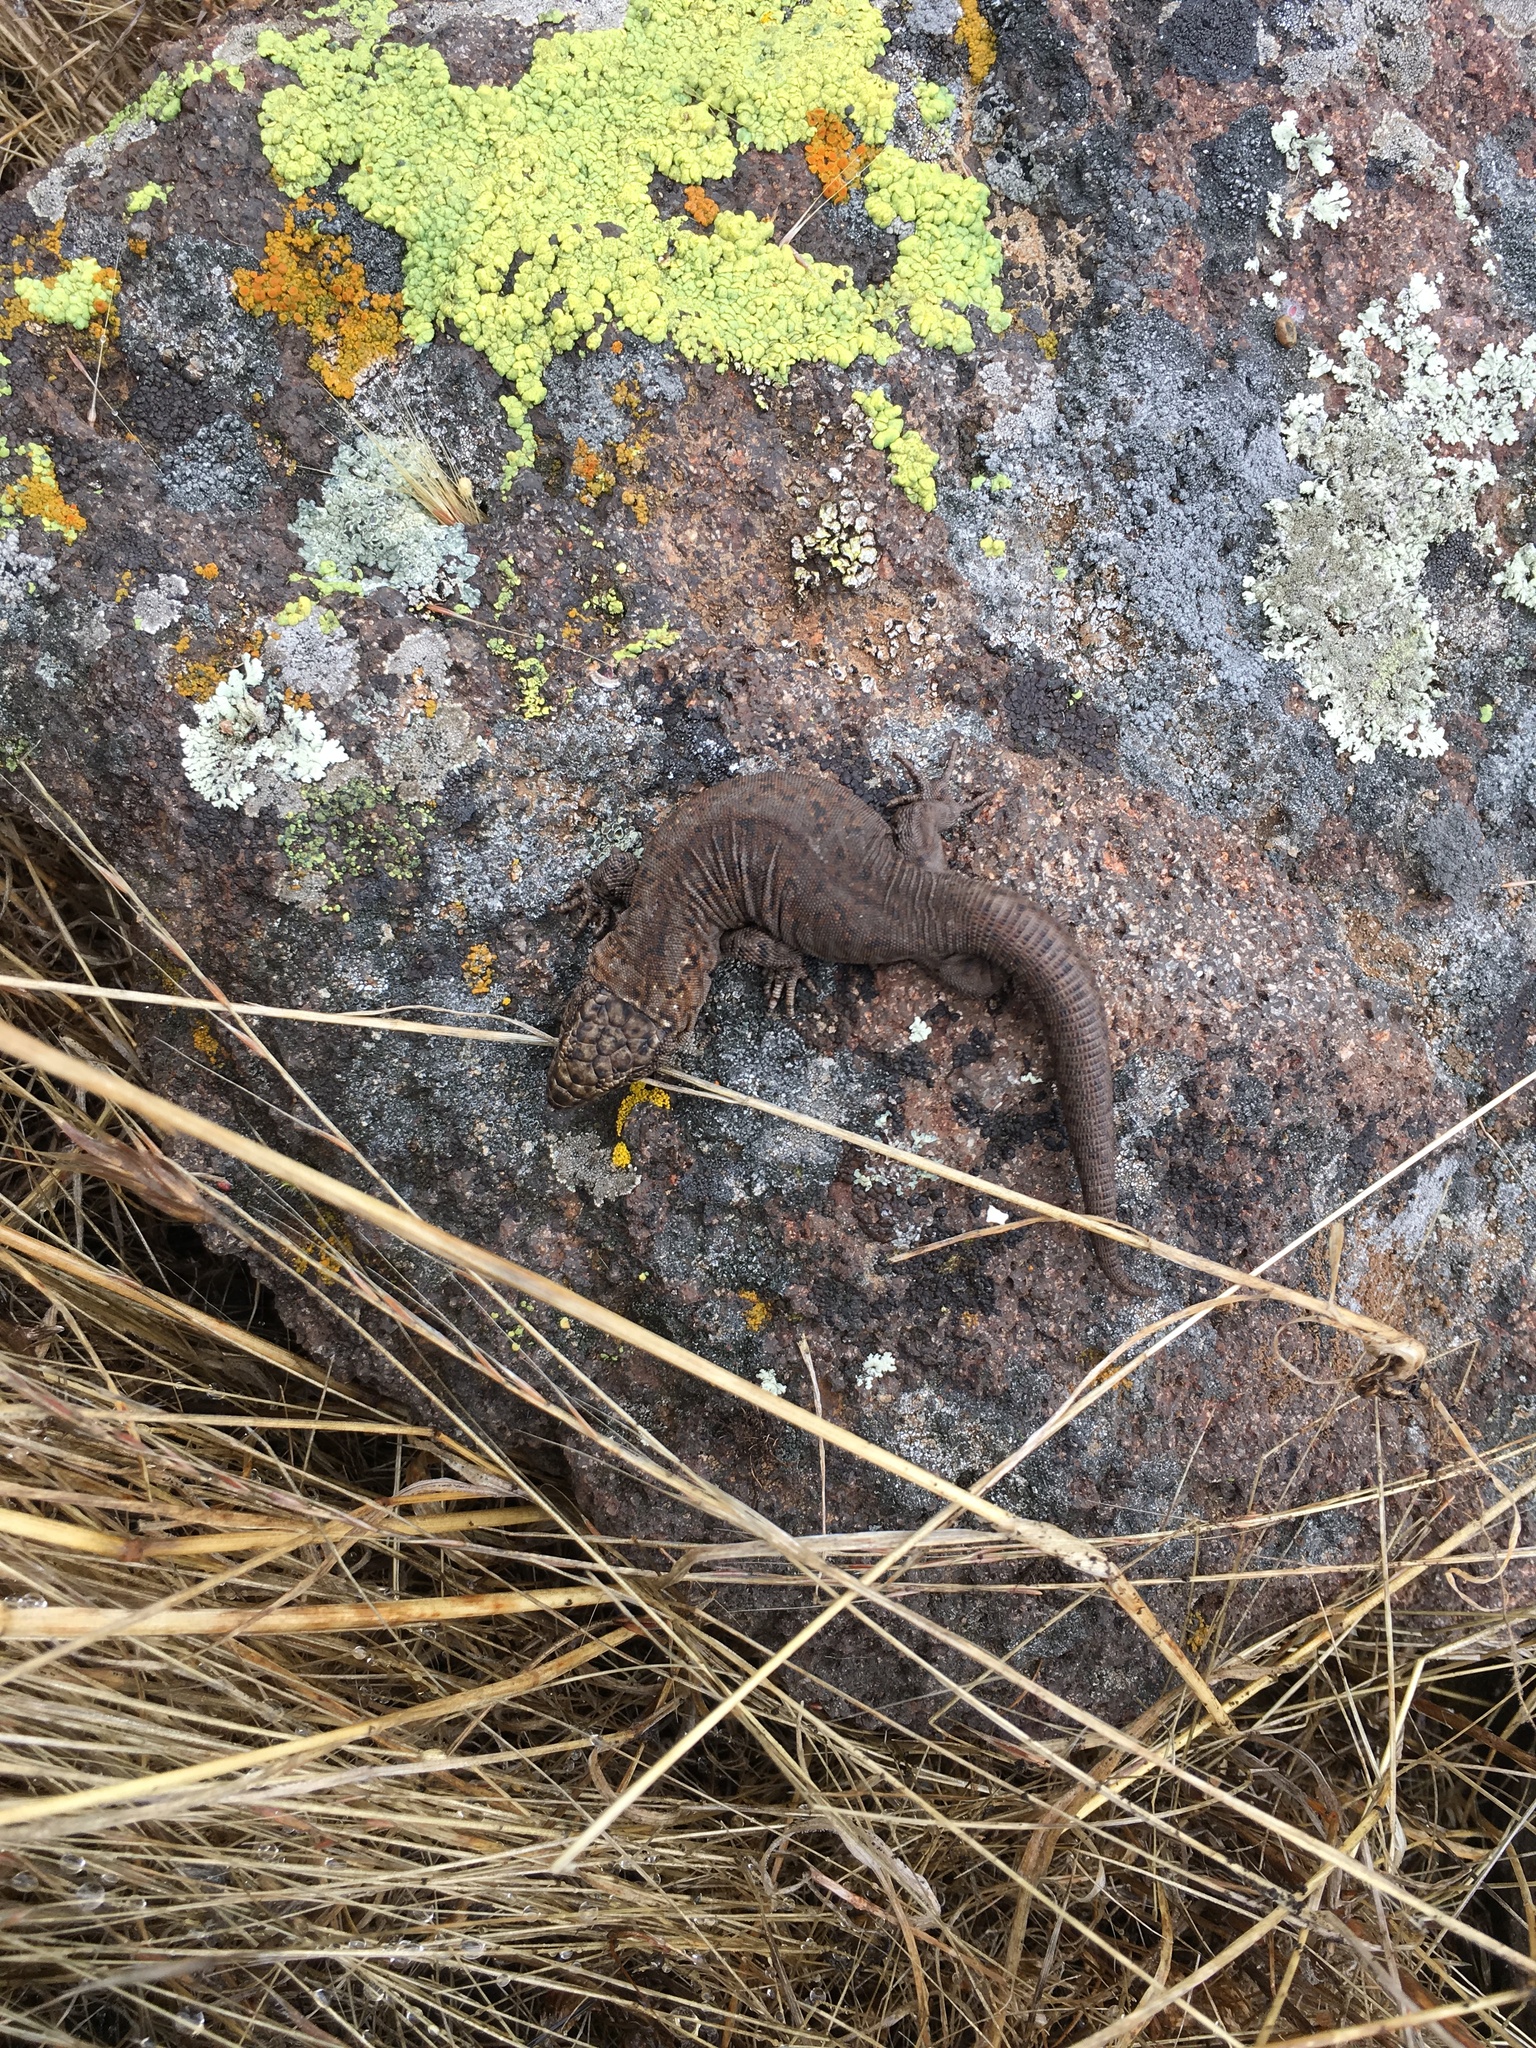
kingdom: Animalia
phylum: Chordata
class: Squamata
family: Xantusiidae
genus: Xantusia
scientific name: Xantusia riversiana
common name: Island night lizard
